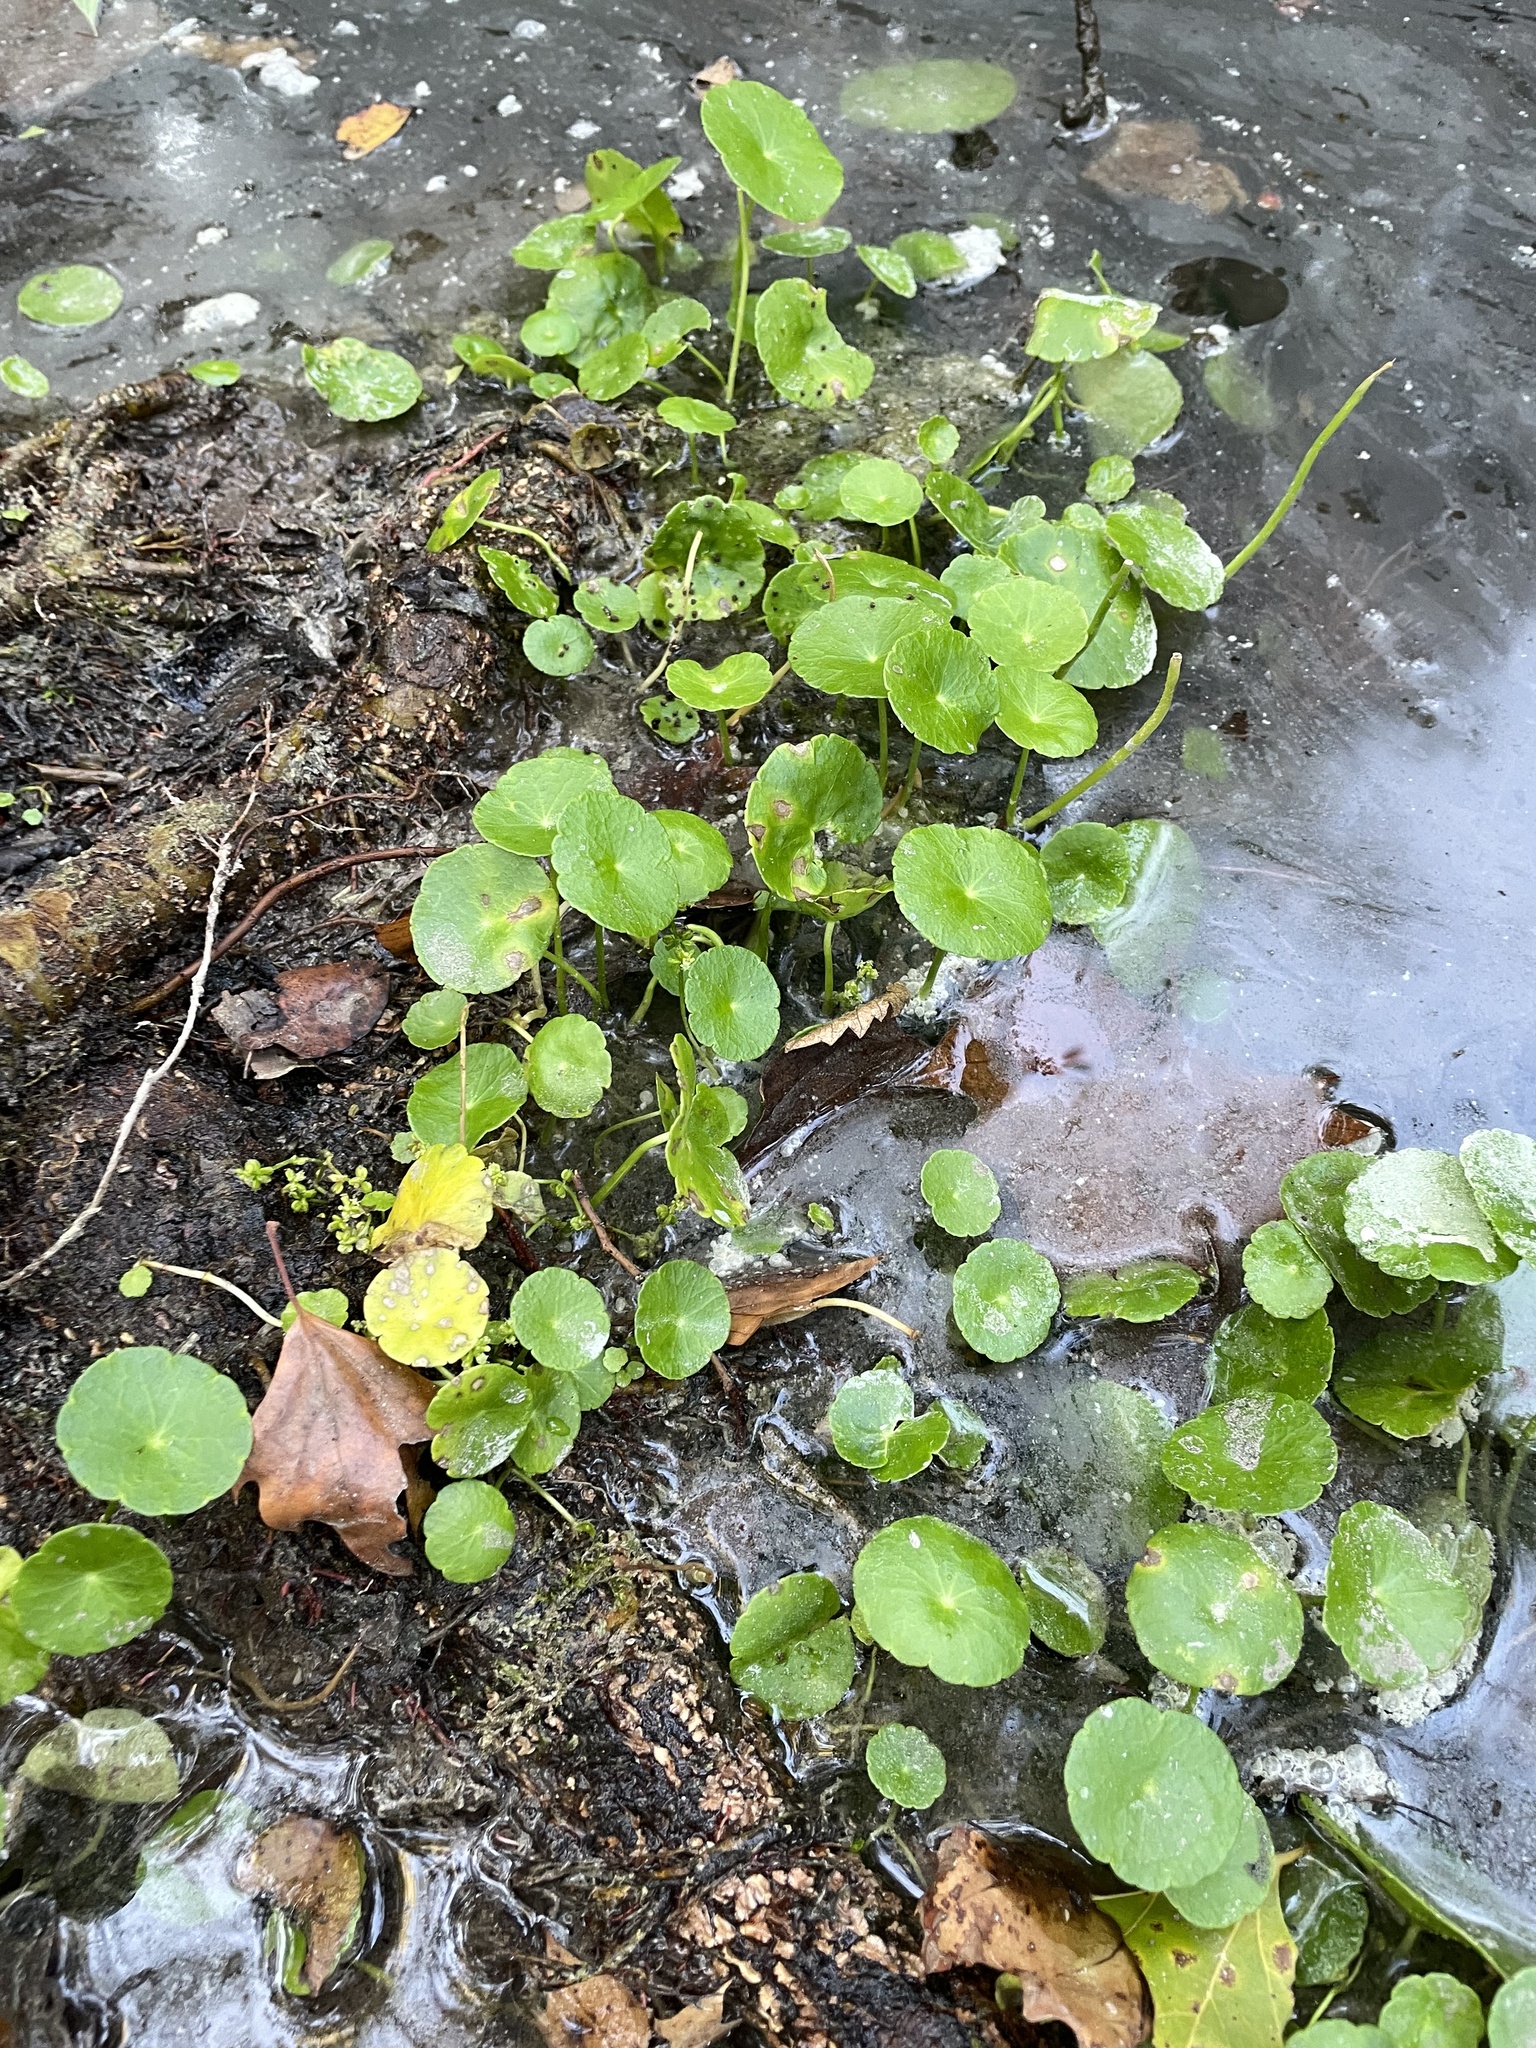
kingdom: Plantae
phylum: Tracheophyta
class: Magnoliopsida
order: Apiales
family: Araliaceae
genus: Hydrocotyle
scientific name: Hydrocotyle verticillata
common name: Whorled marshpennywort
